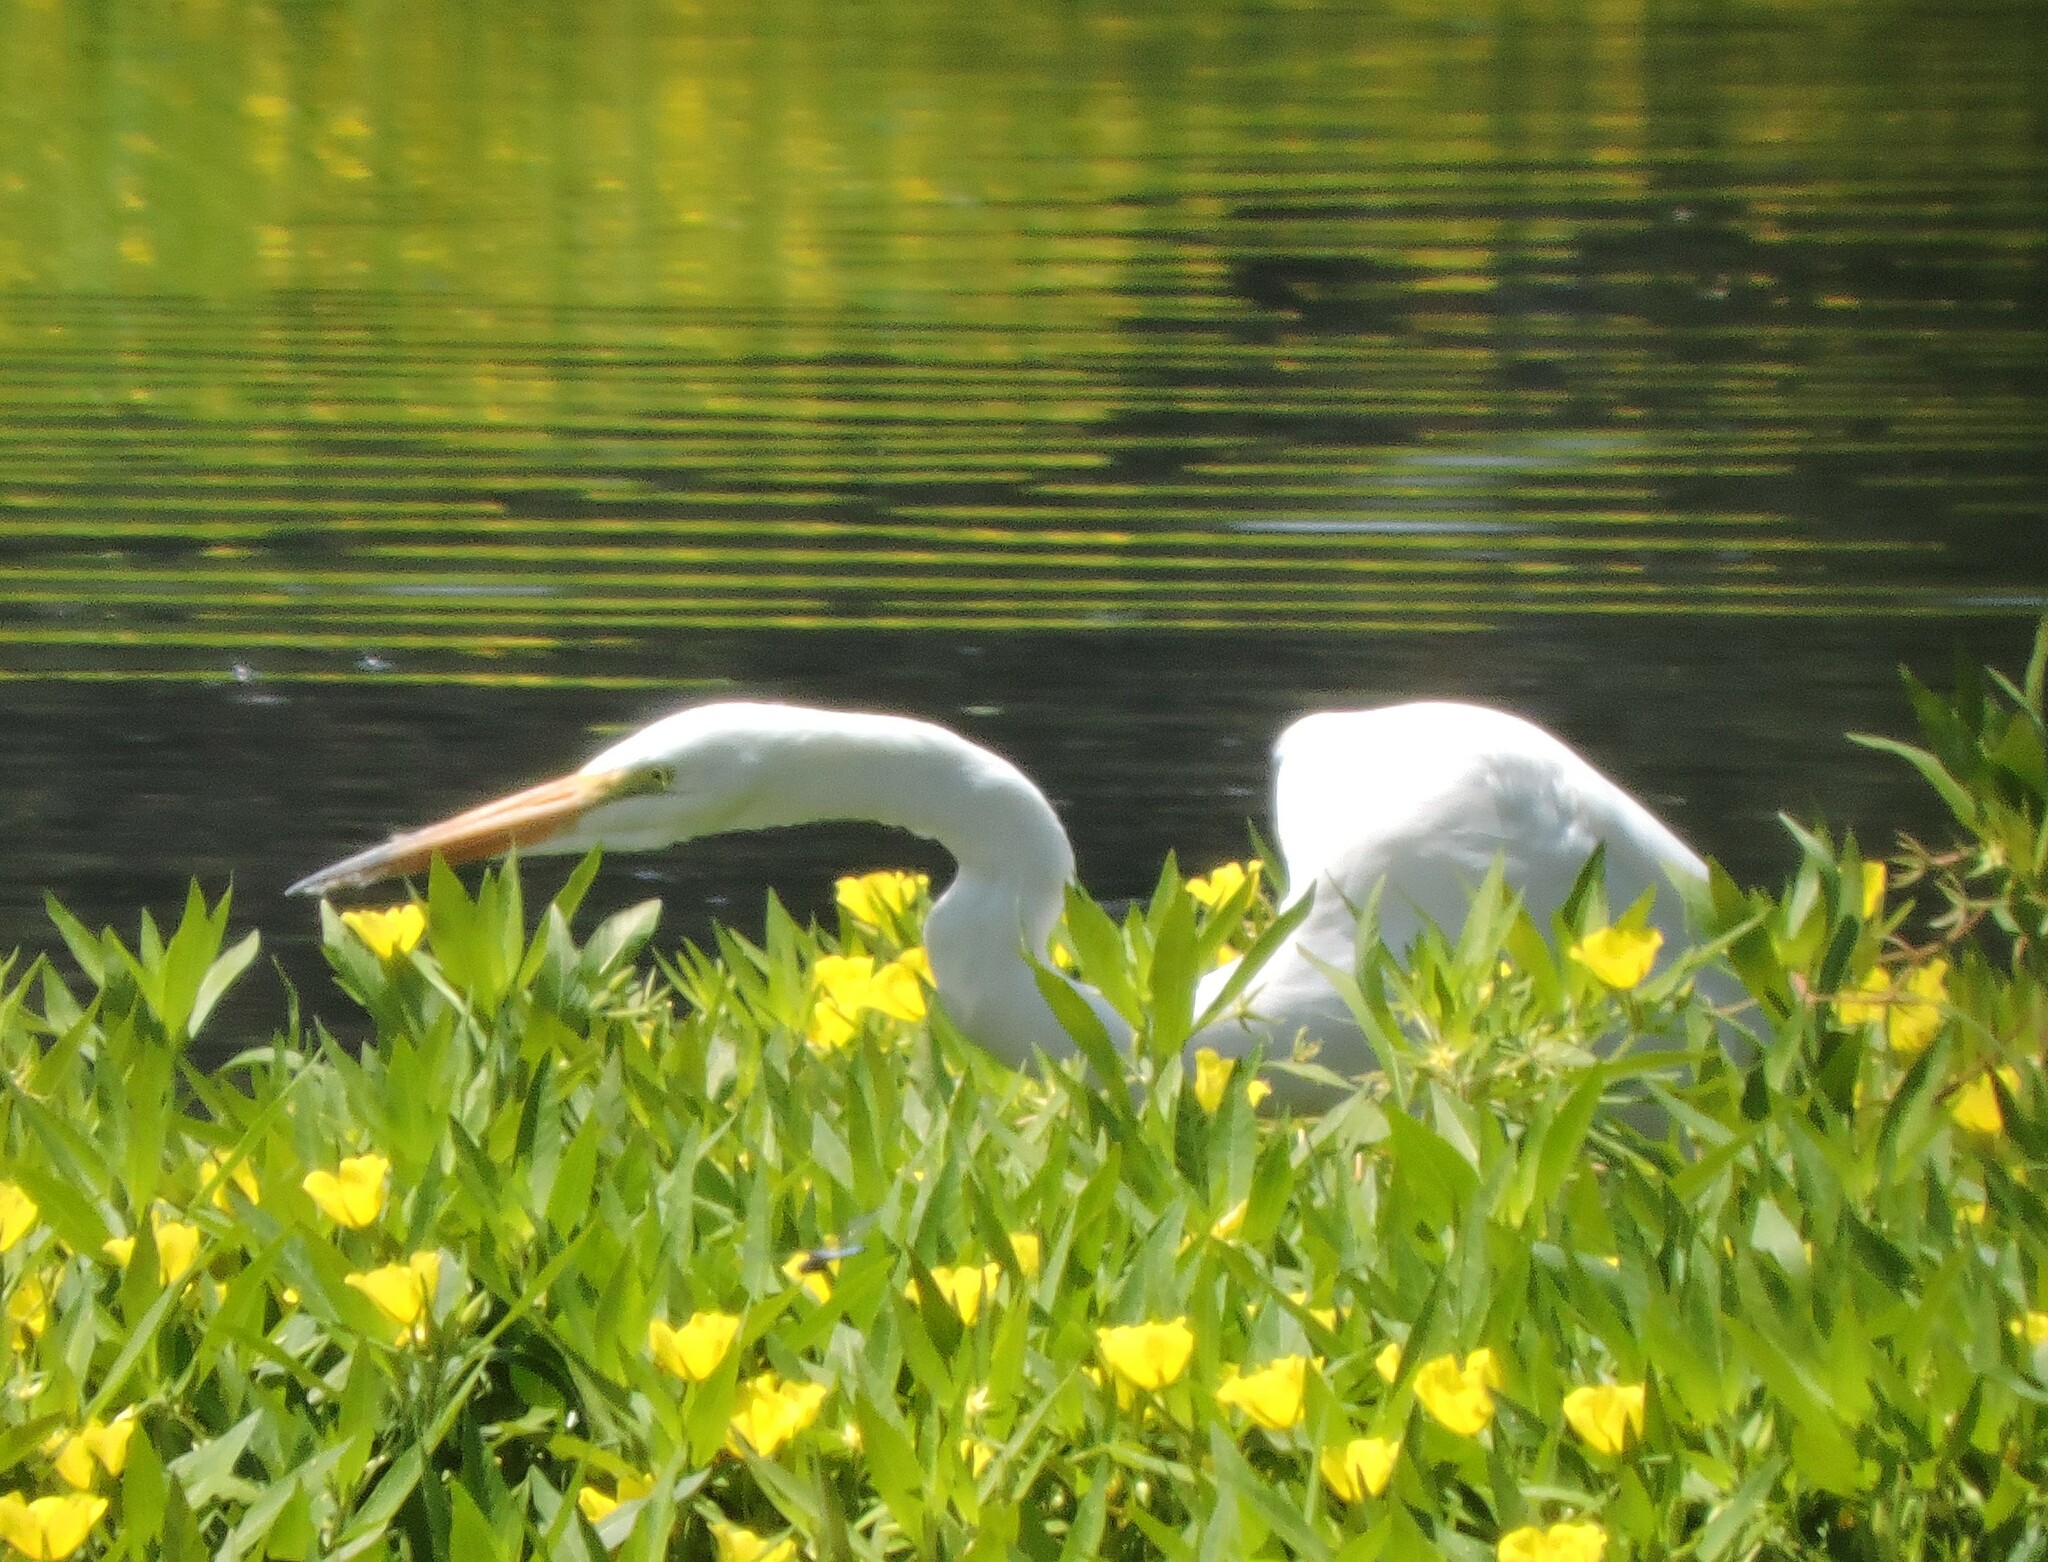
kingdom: Animalia
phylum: Chordata
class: Aves
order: Pelecaniformes
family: Ardeidae
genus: Ardea
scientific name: Ardea alba
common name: Great egret
